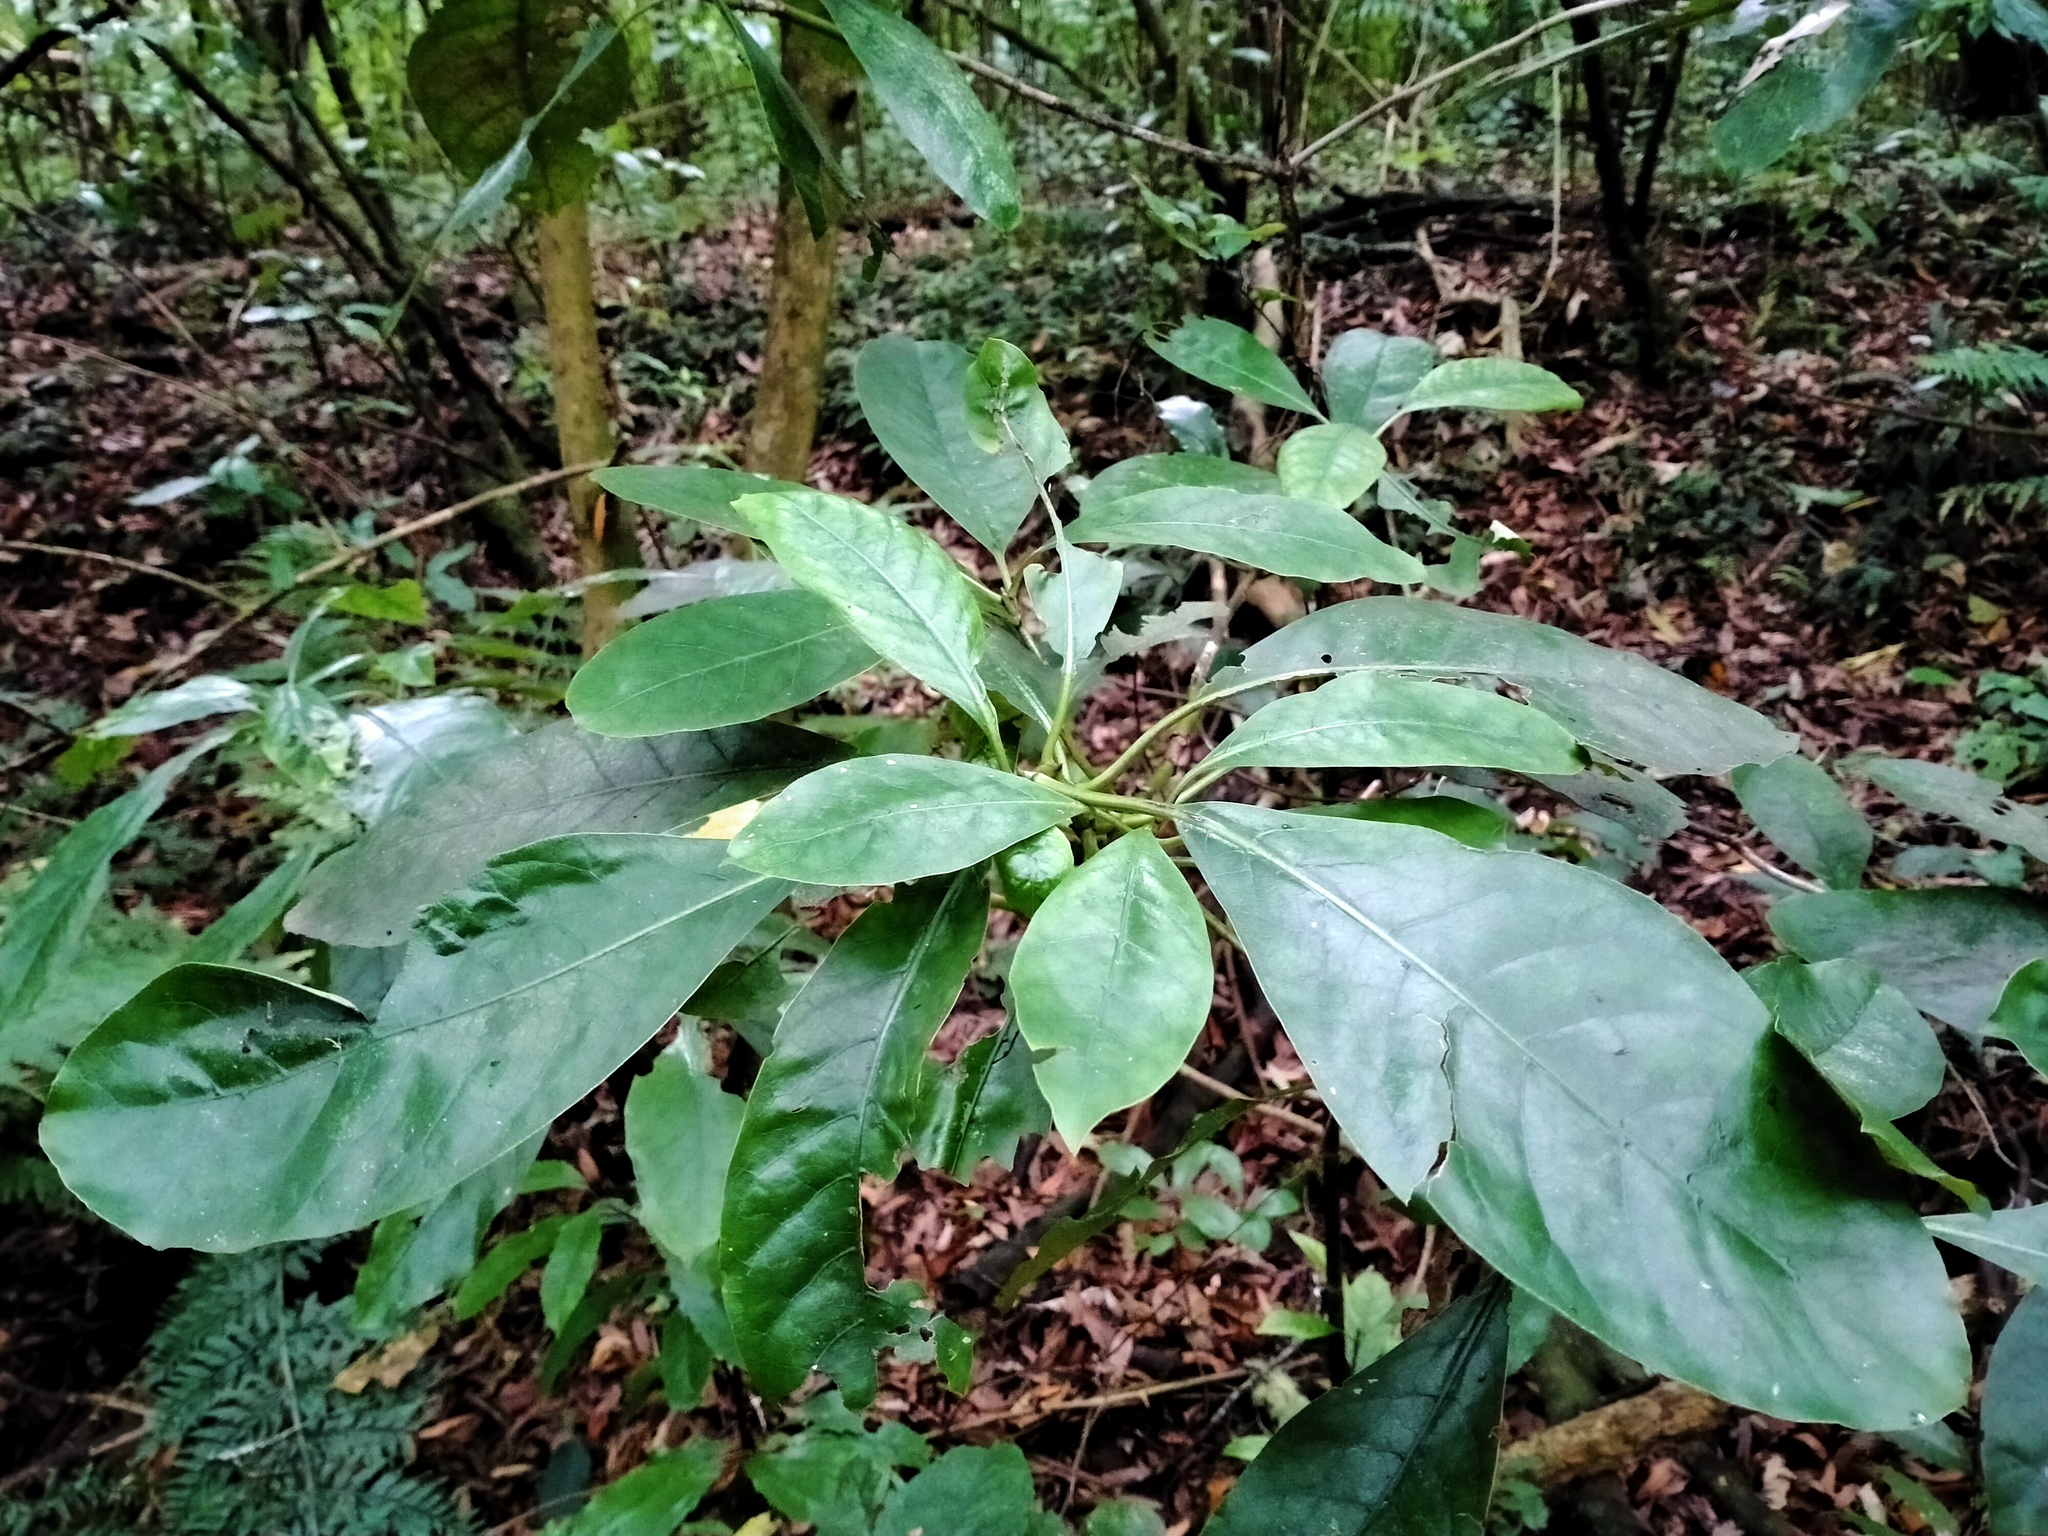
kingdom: Plantae
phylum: Tracheophyta
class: Magnoliopsida
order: Gentianales
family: Rubiaceae
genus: Coprosma
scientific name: Coprosma autumnalis
